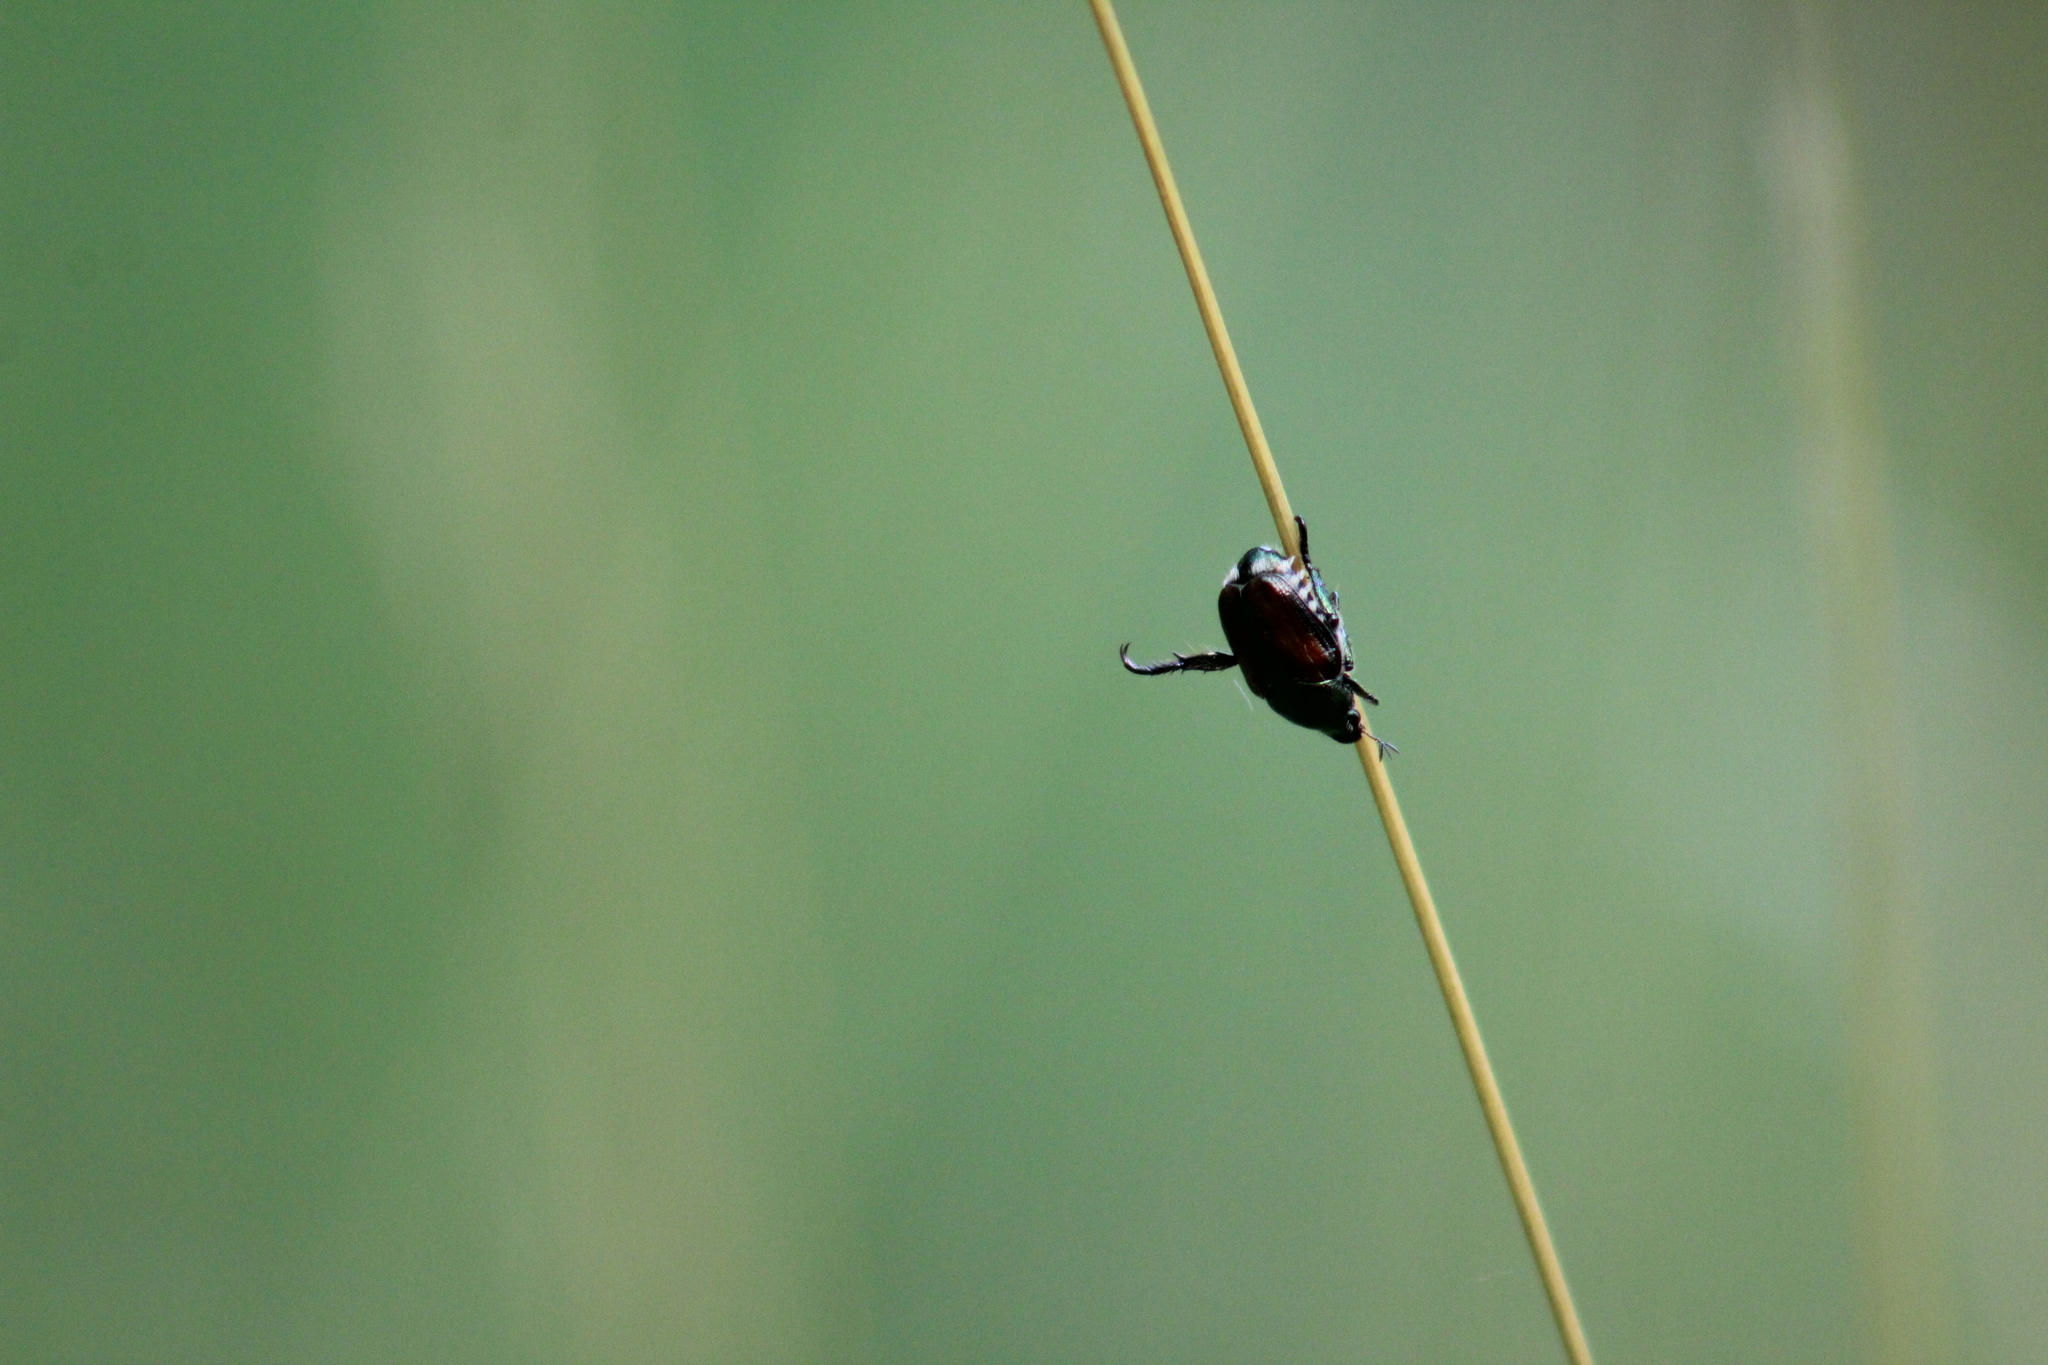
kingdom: Animalia
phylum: Arthropoda
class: Insecta
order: Coleoptera
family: Scarabaeidae
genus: Popillia
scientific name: Popillia japonica
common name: Japanese beetle
